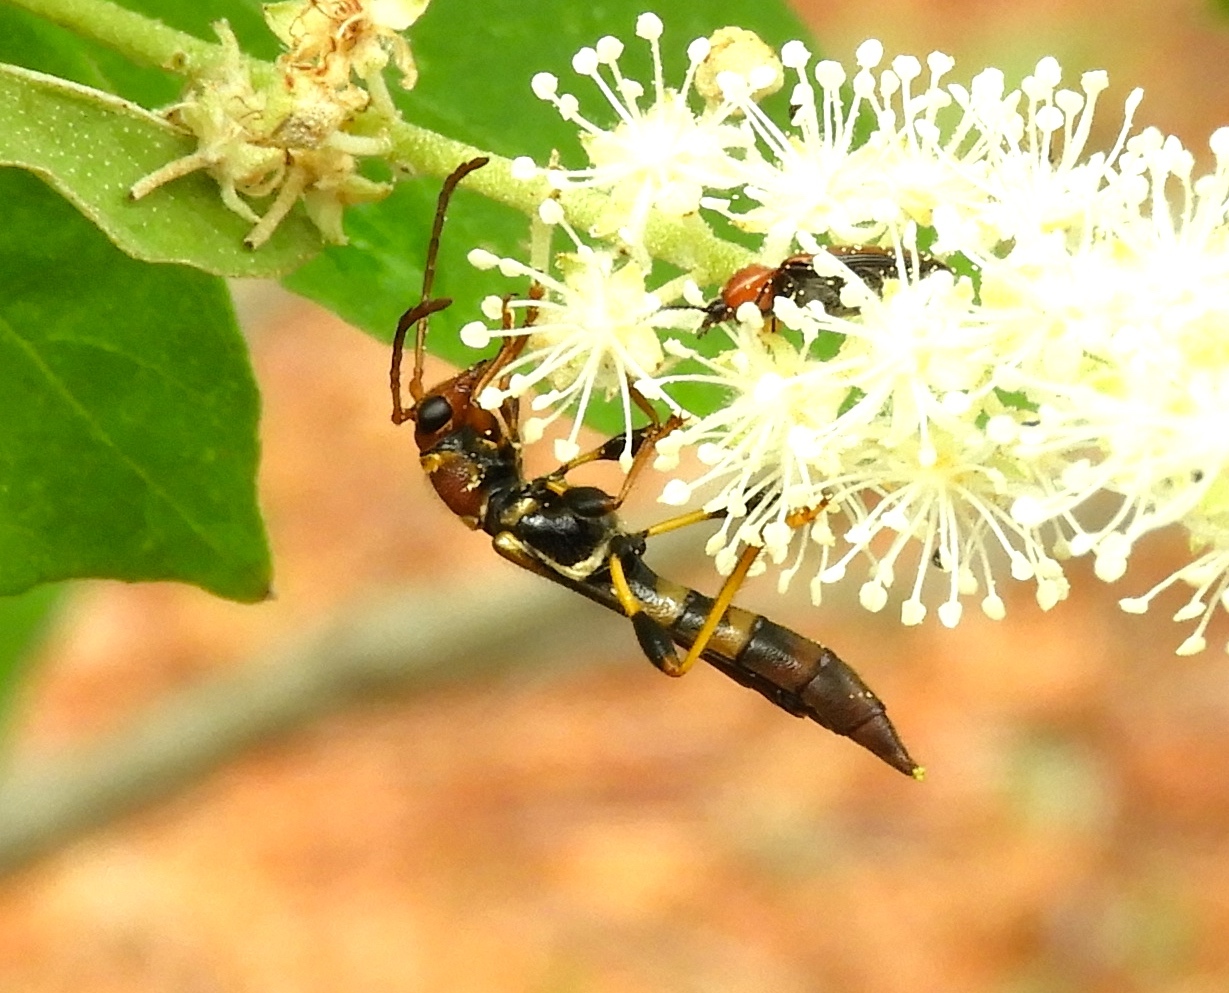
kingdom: Animalia
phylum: Arthropoda
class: Insecta
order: Coleoptera
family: Cerambycidae
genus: Odontocera
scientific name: Odontocera aurocincta
